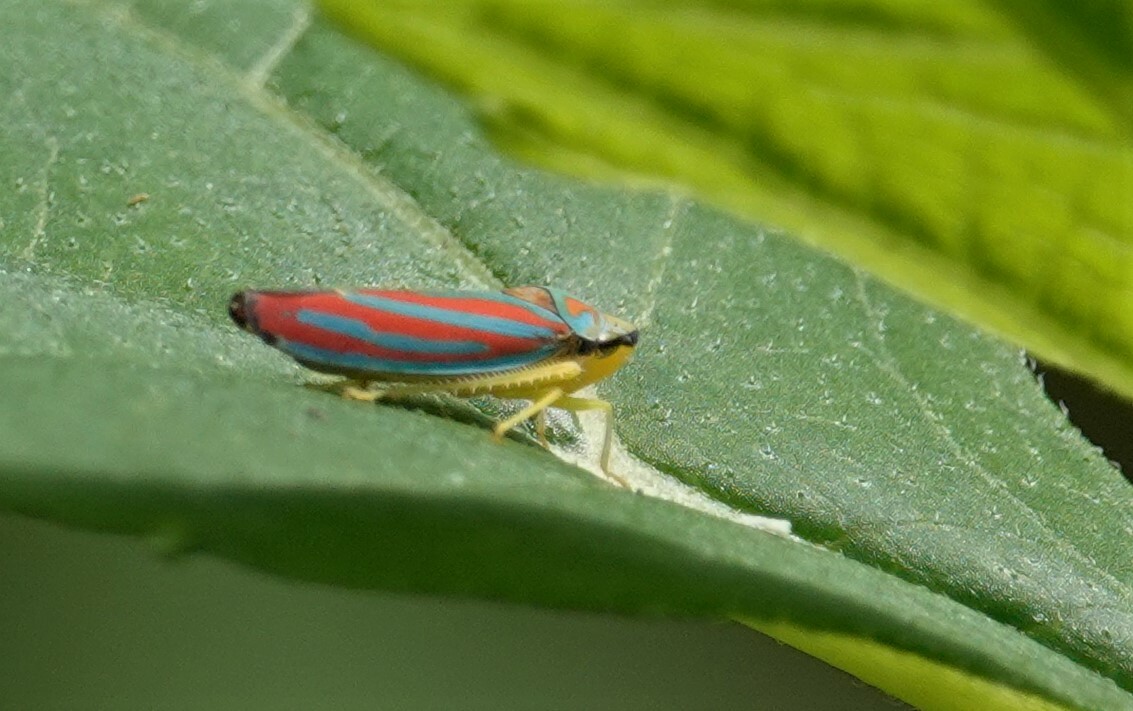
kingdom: Animalia
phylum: Arthropoda
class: Insecta
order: Hemiptera
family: Cicadellidae
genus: Graphocephala
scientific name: Graphocephala coccinea
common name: Candy-striped leafhopper
